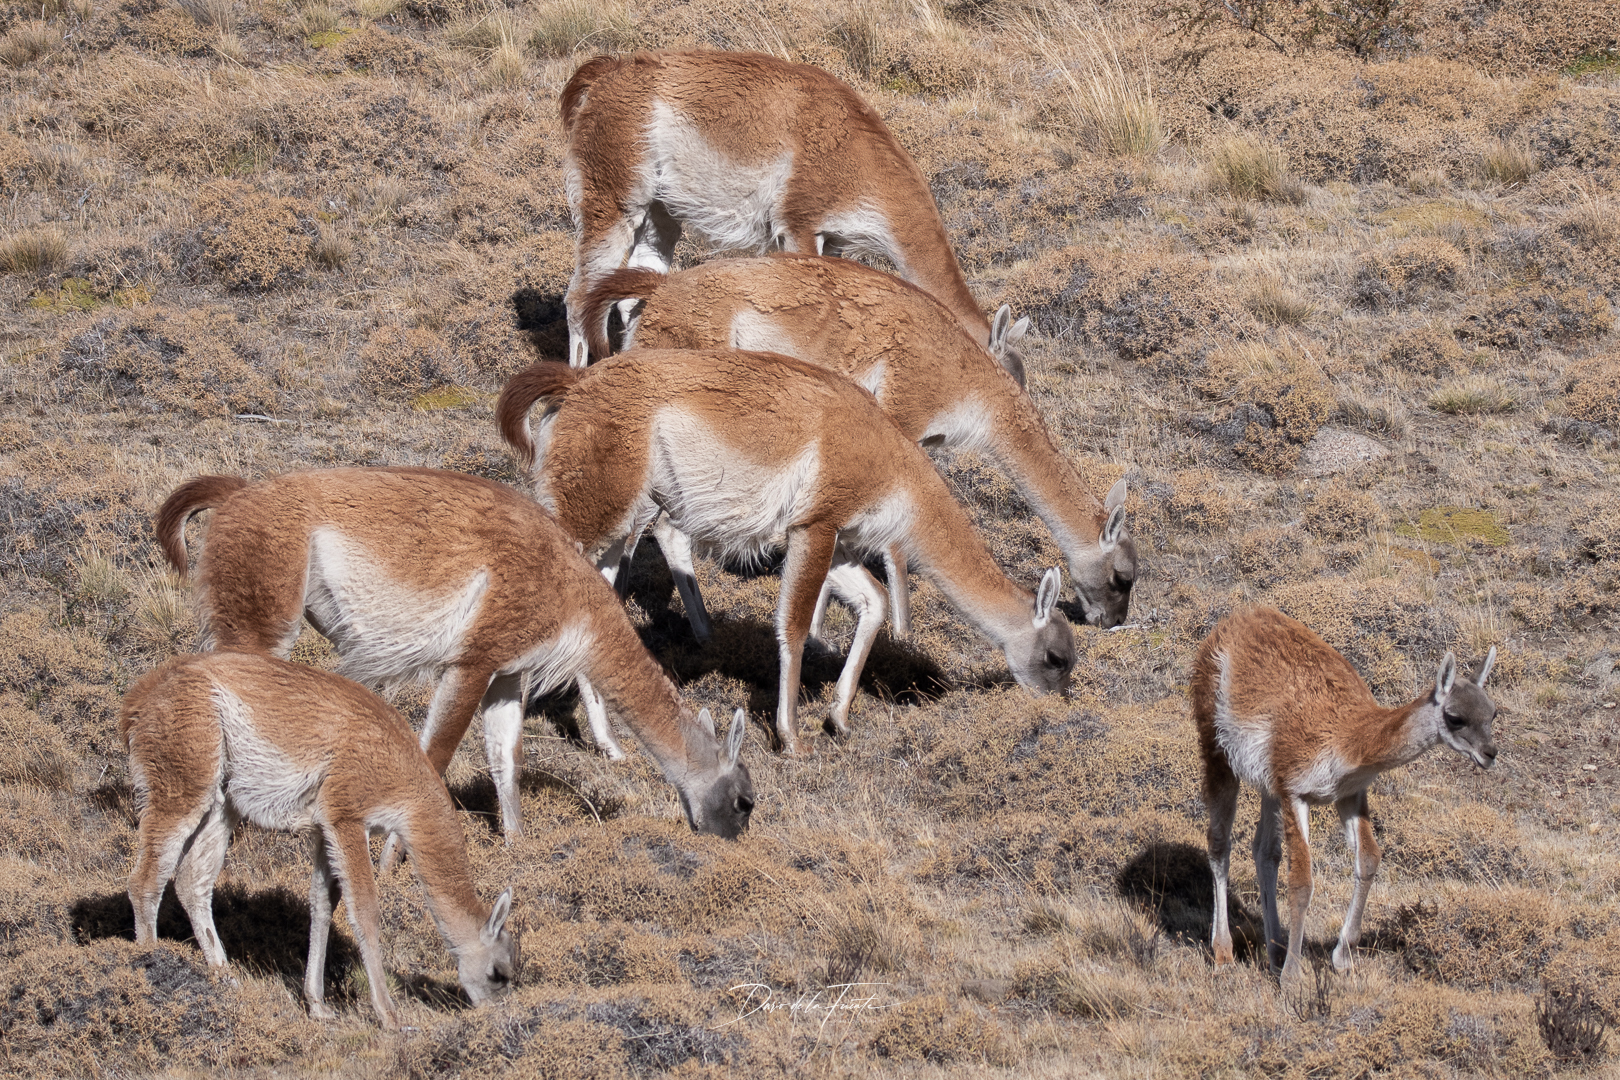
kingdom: Animalia
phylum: Chordata
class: Mammalia
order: Artiodactyla
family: Camelidae
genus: Lama
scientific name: Lama glama
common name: Llama
